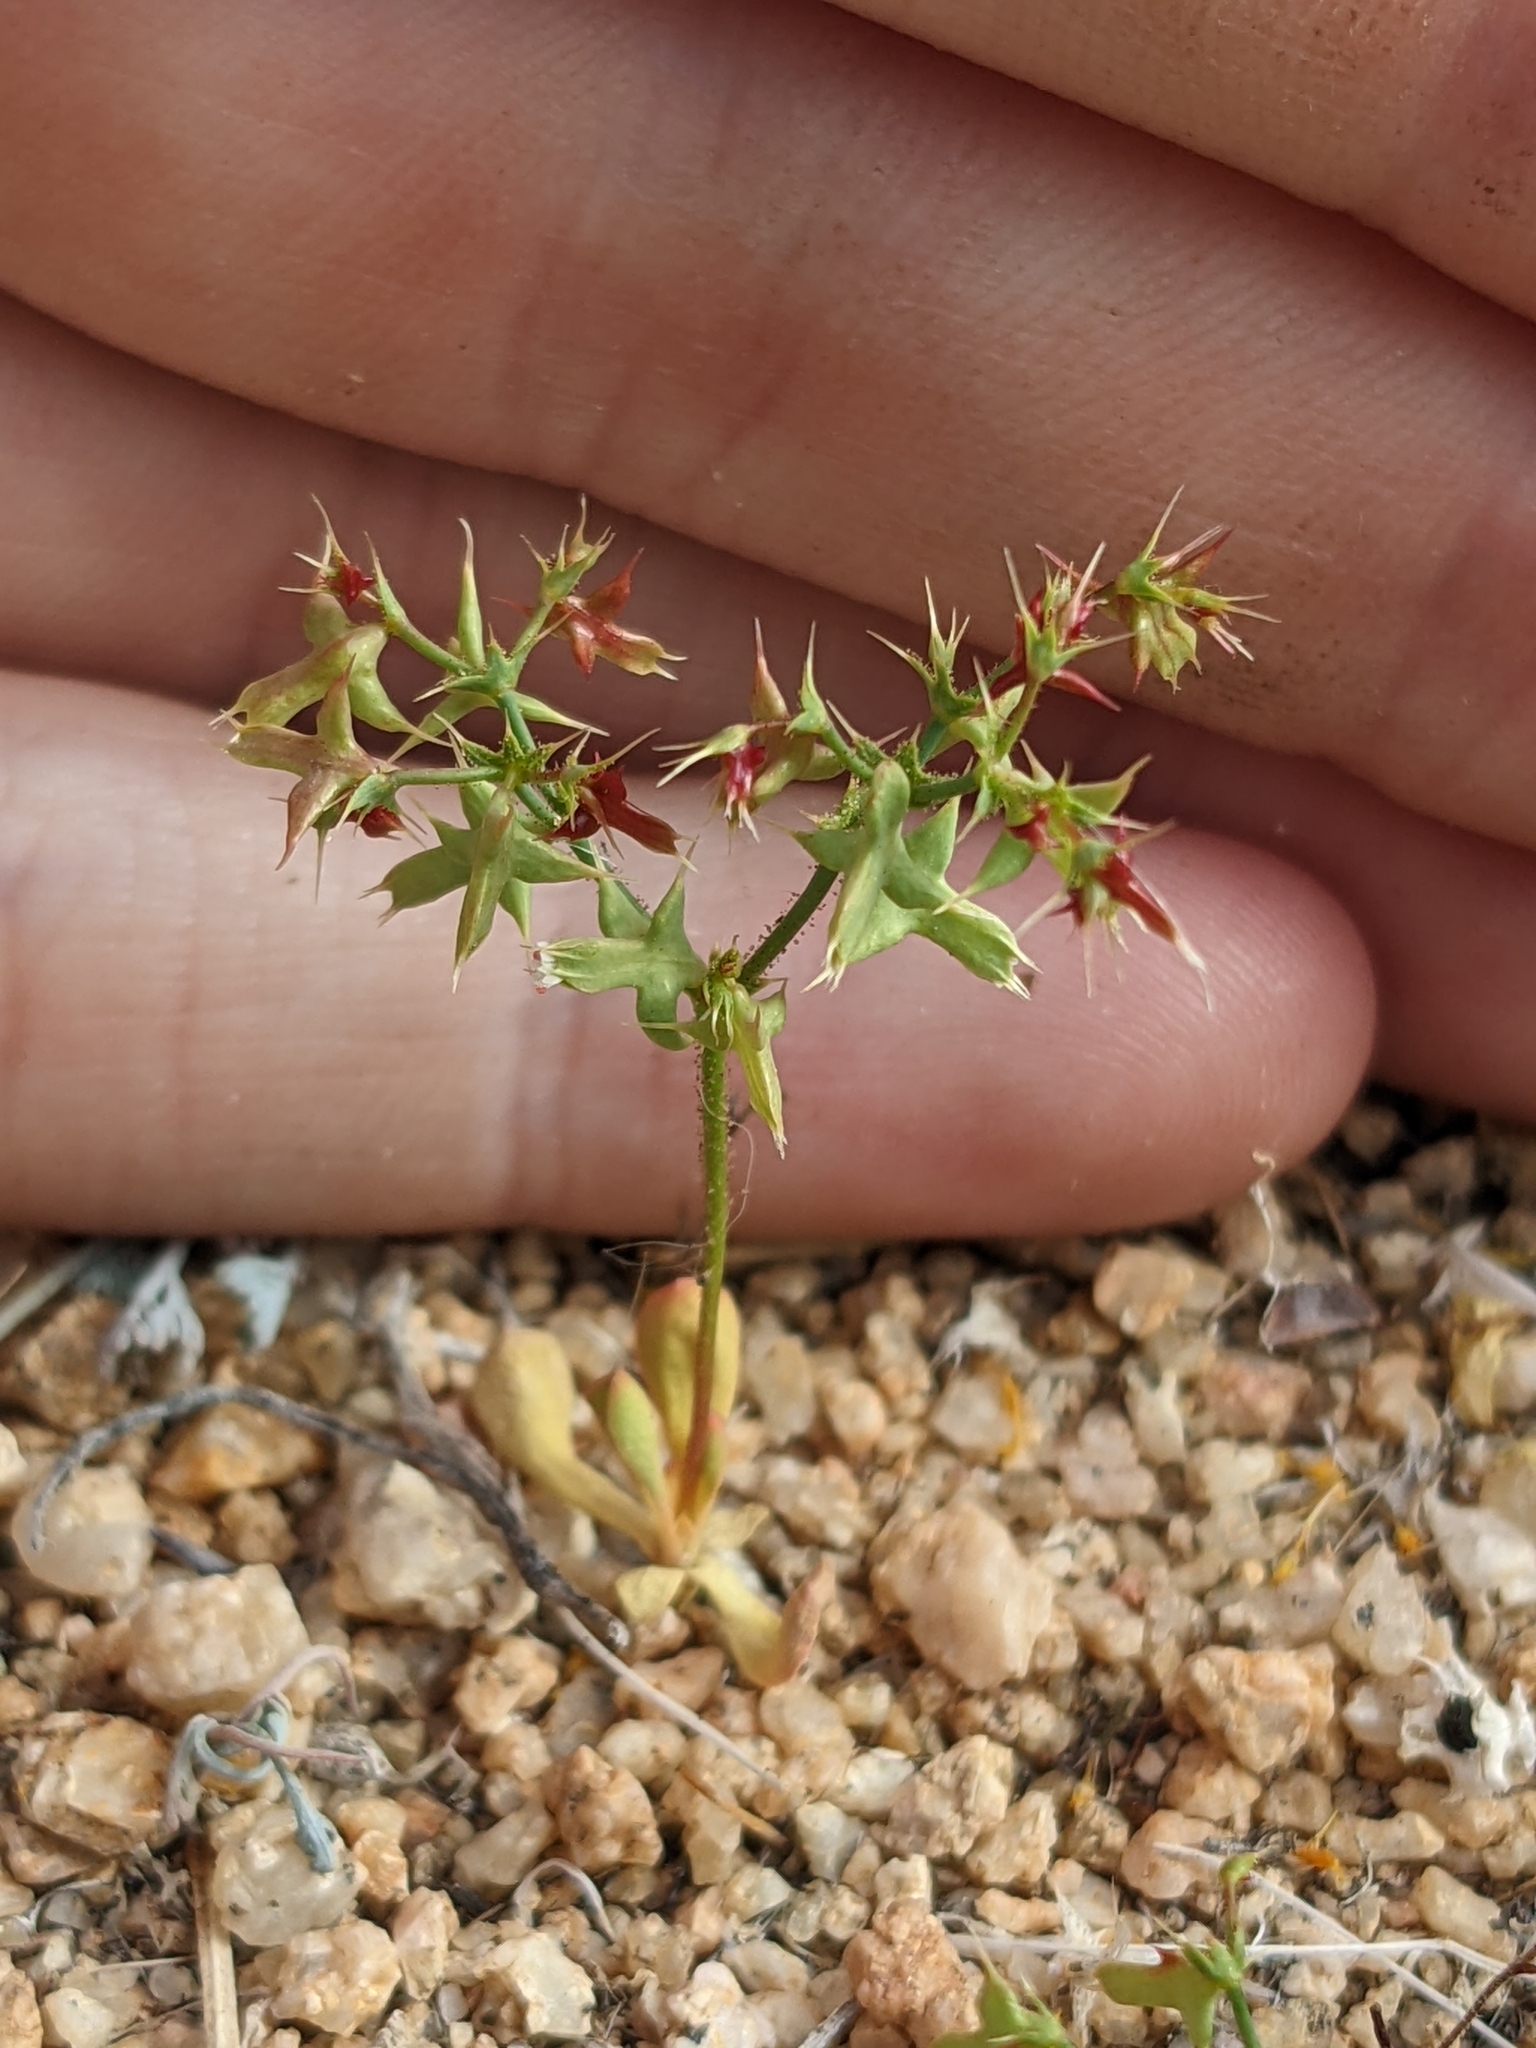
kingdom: Plantae
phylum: Tracheophyta
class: Magnoliopsida
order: Caryophyllales
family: Polygonaceae
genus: Centrostegia
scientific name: Centrostegia thurberi
